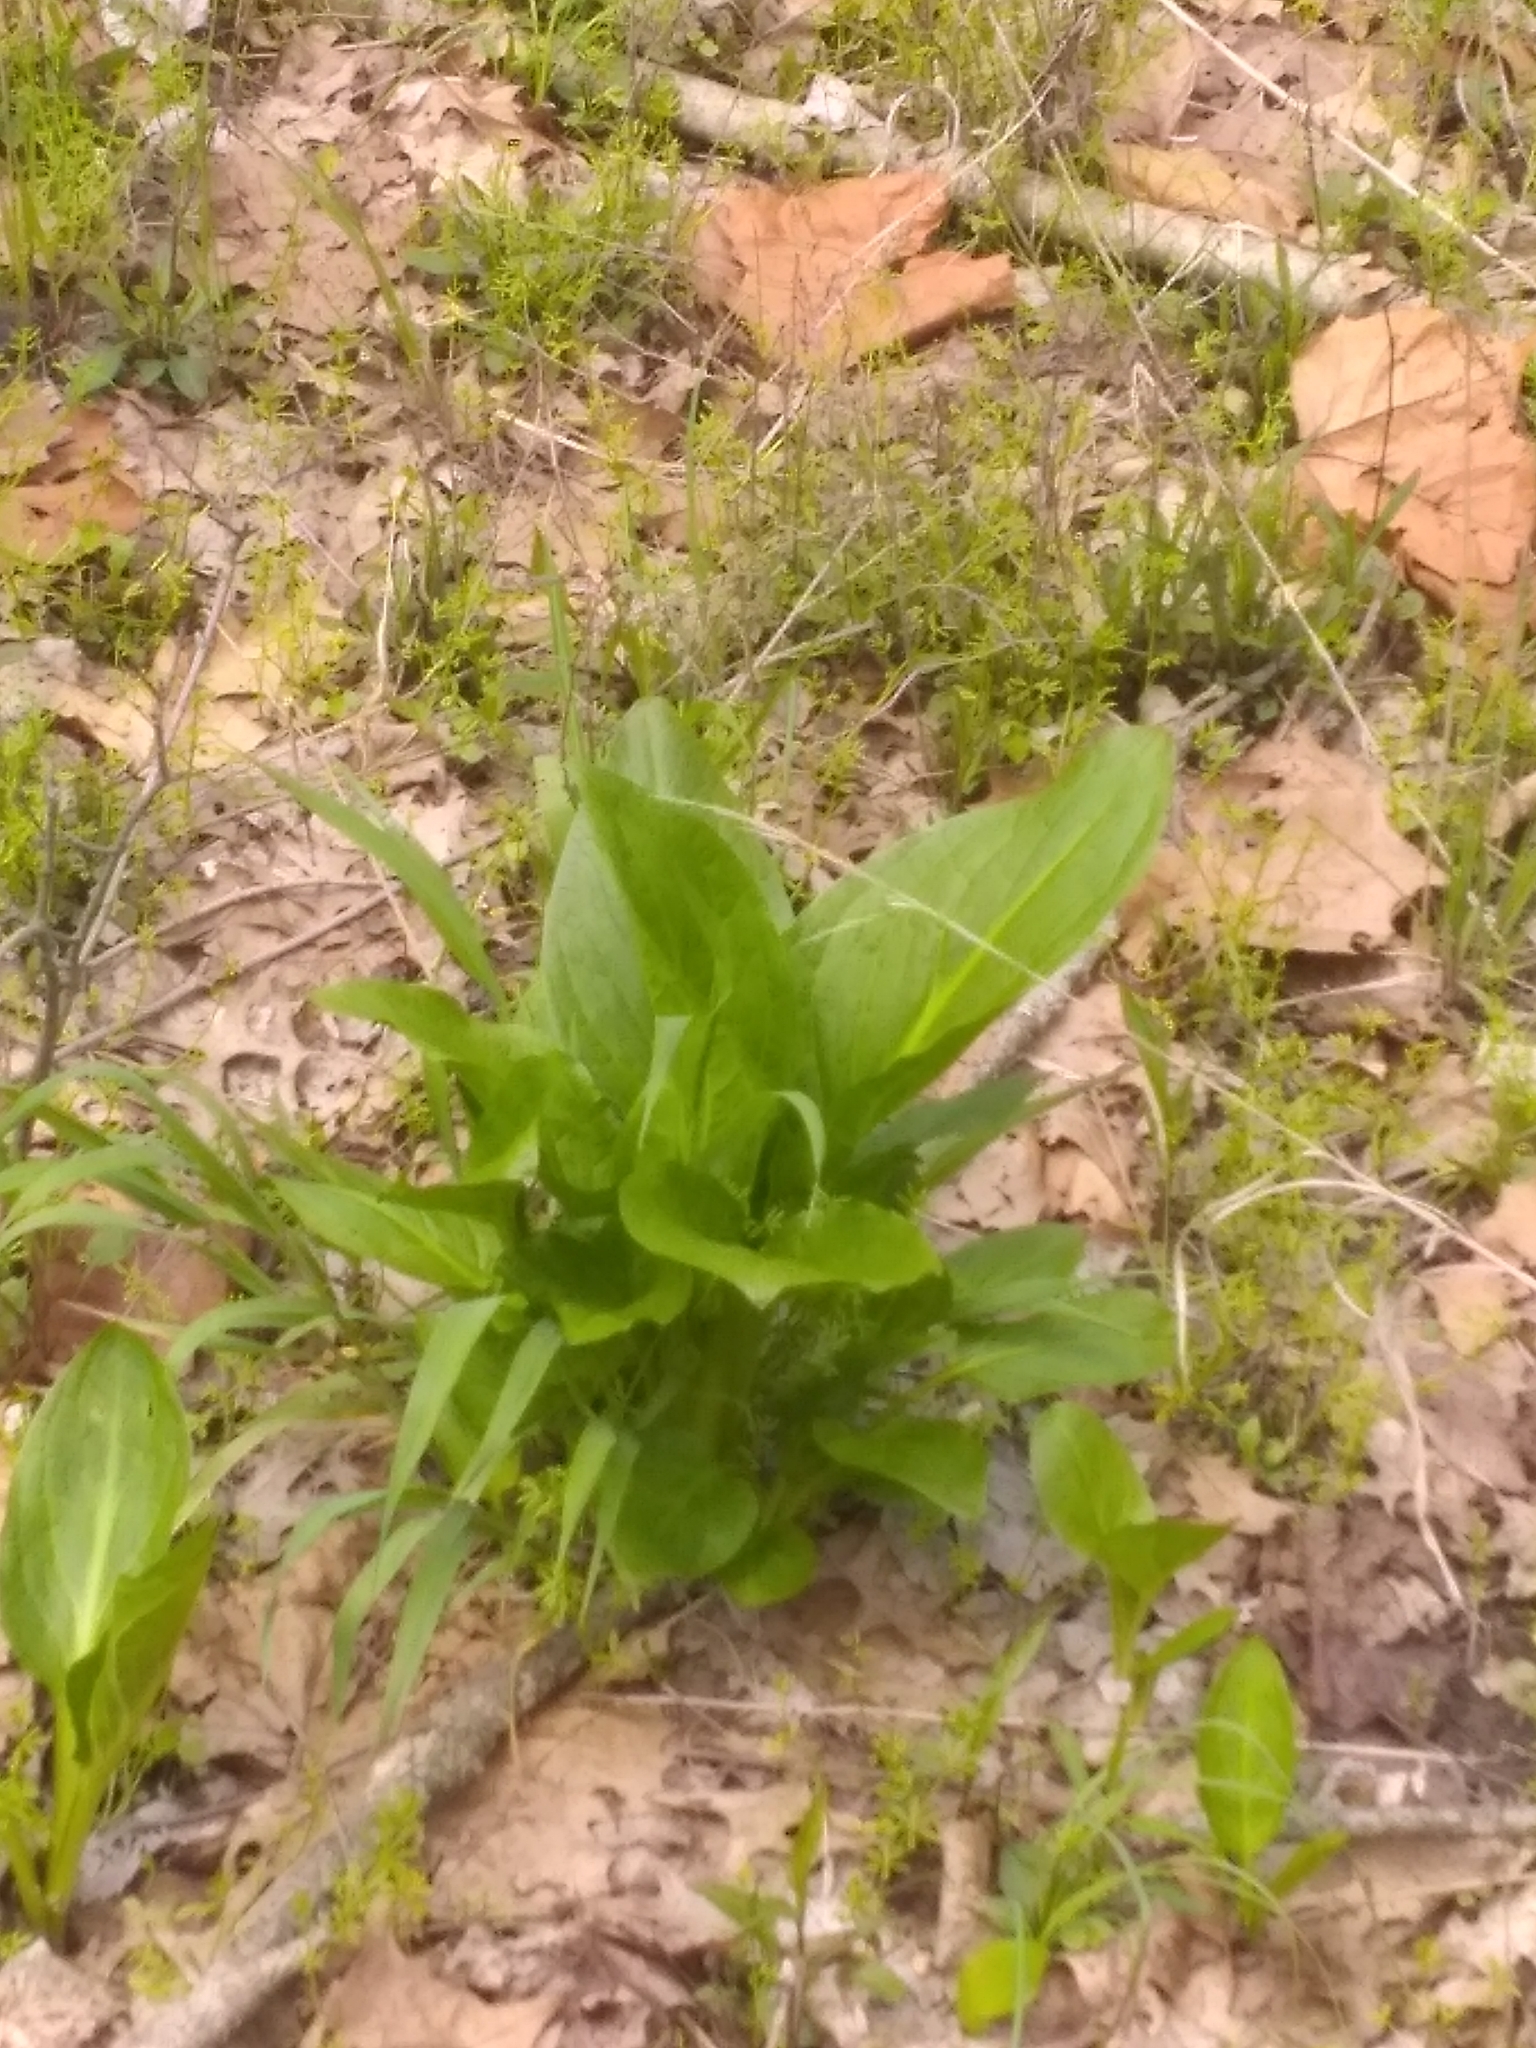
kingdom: Plantae
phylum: Tracheophyta
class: Liliopsida
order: Alismatales
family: Araceae
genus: Symplocarpus
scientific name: Symplocarpus foetidus
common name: Eastern skunk cabbage
